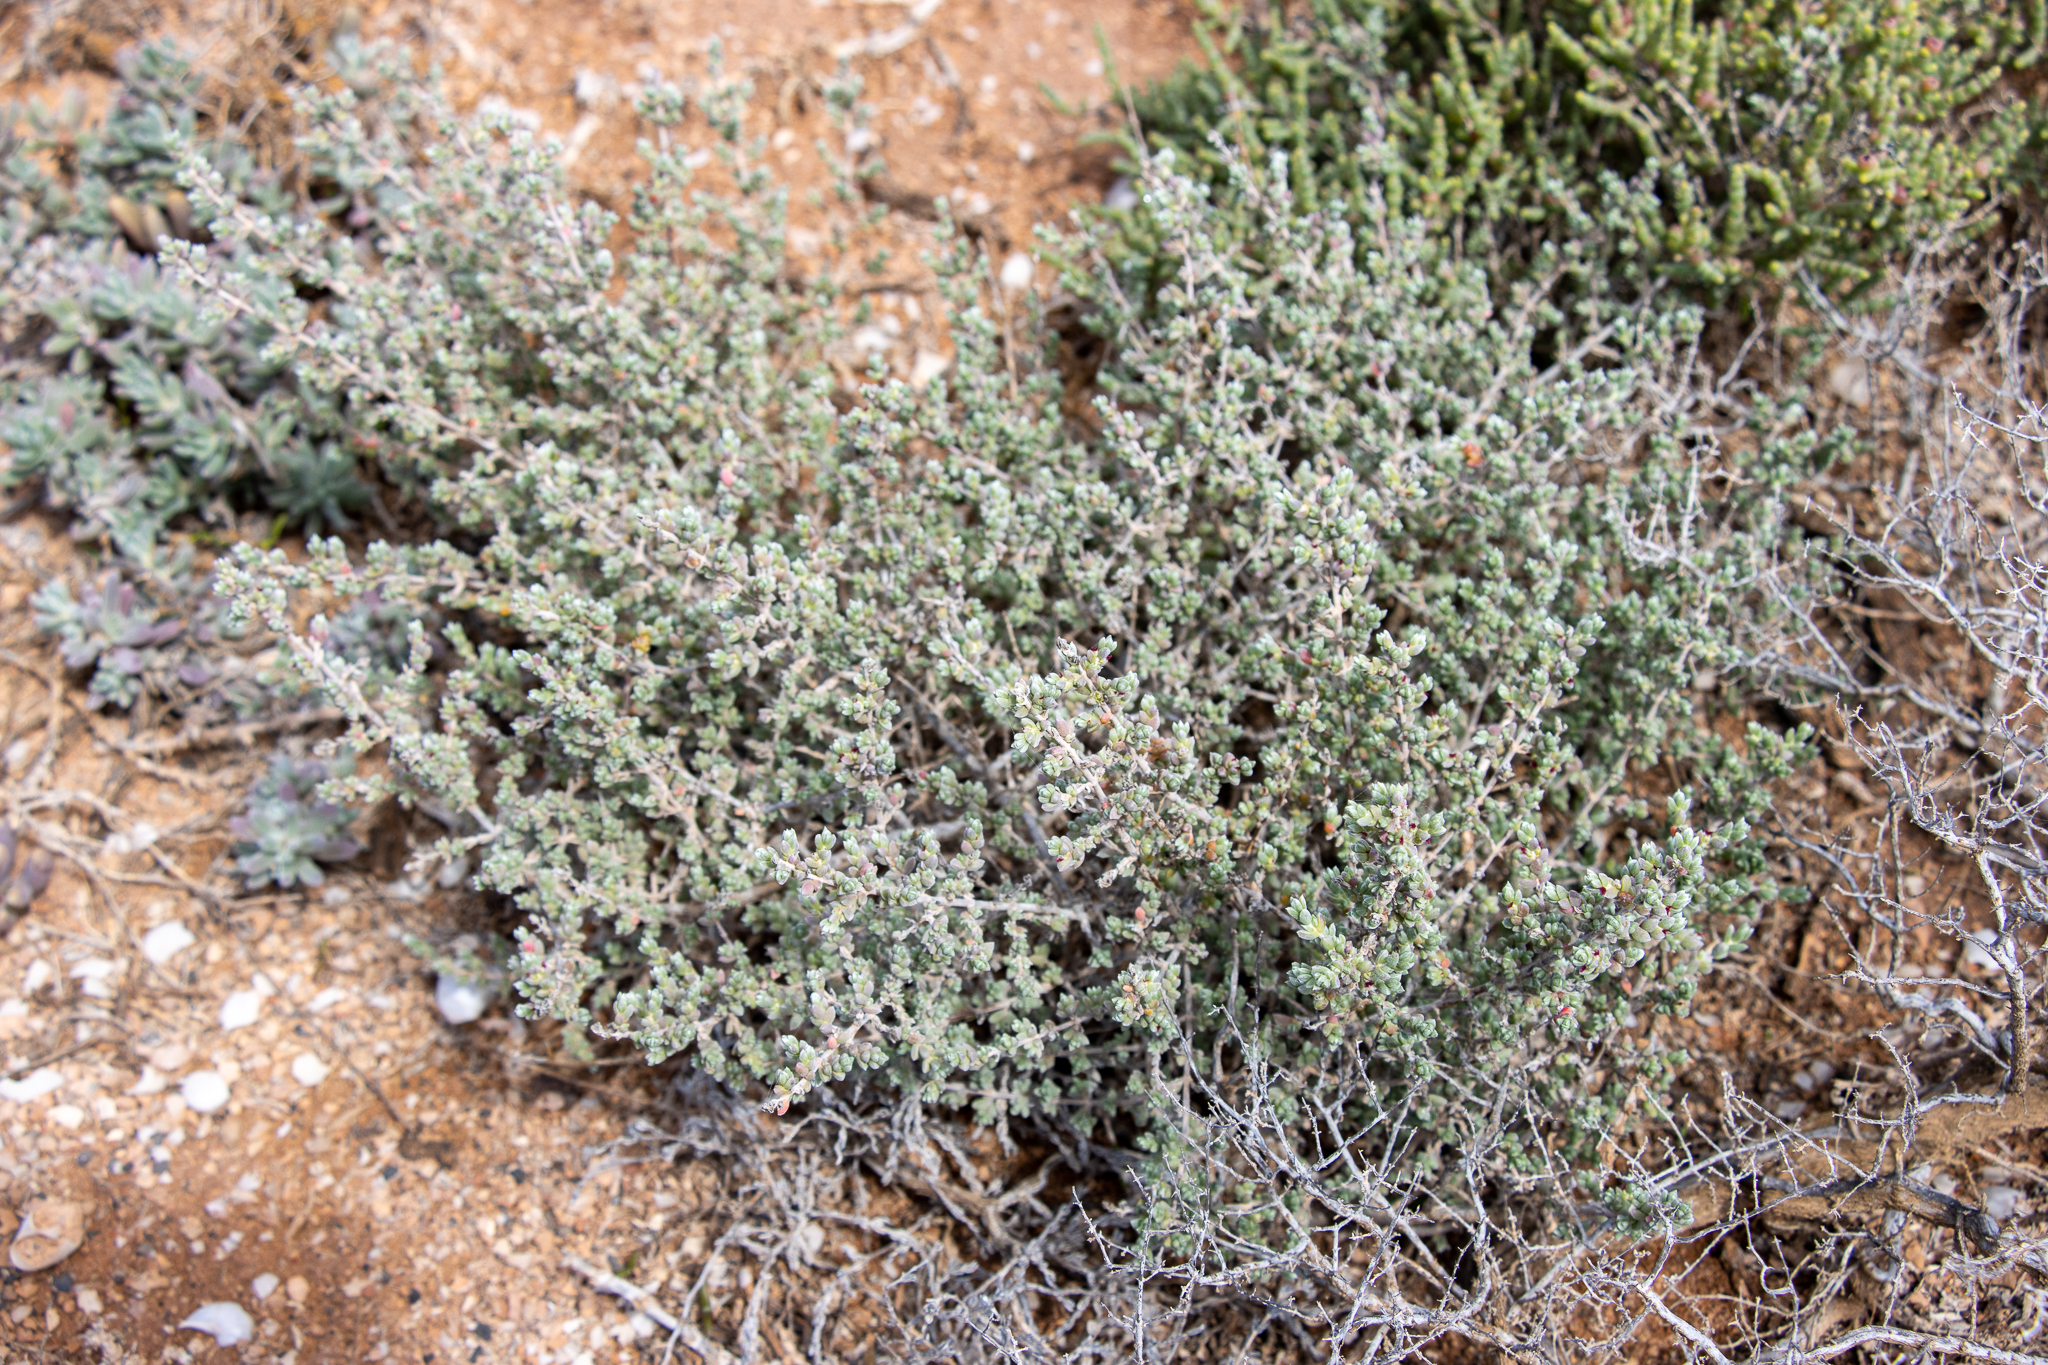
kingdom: Plantae
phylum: Tracheophyta
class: Magnoliopsida
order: Caryophyllales
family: Amaranthaceae
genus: Maireana
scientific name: Maireana oppositifolia
